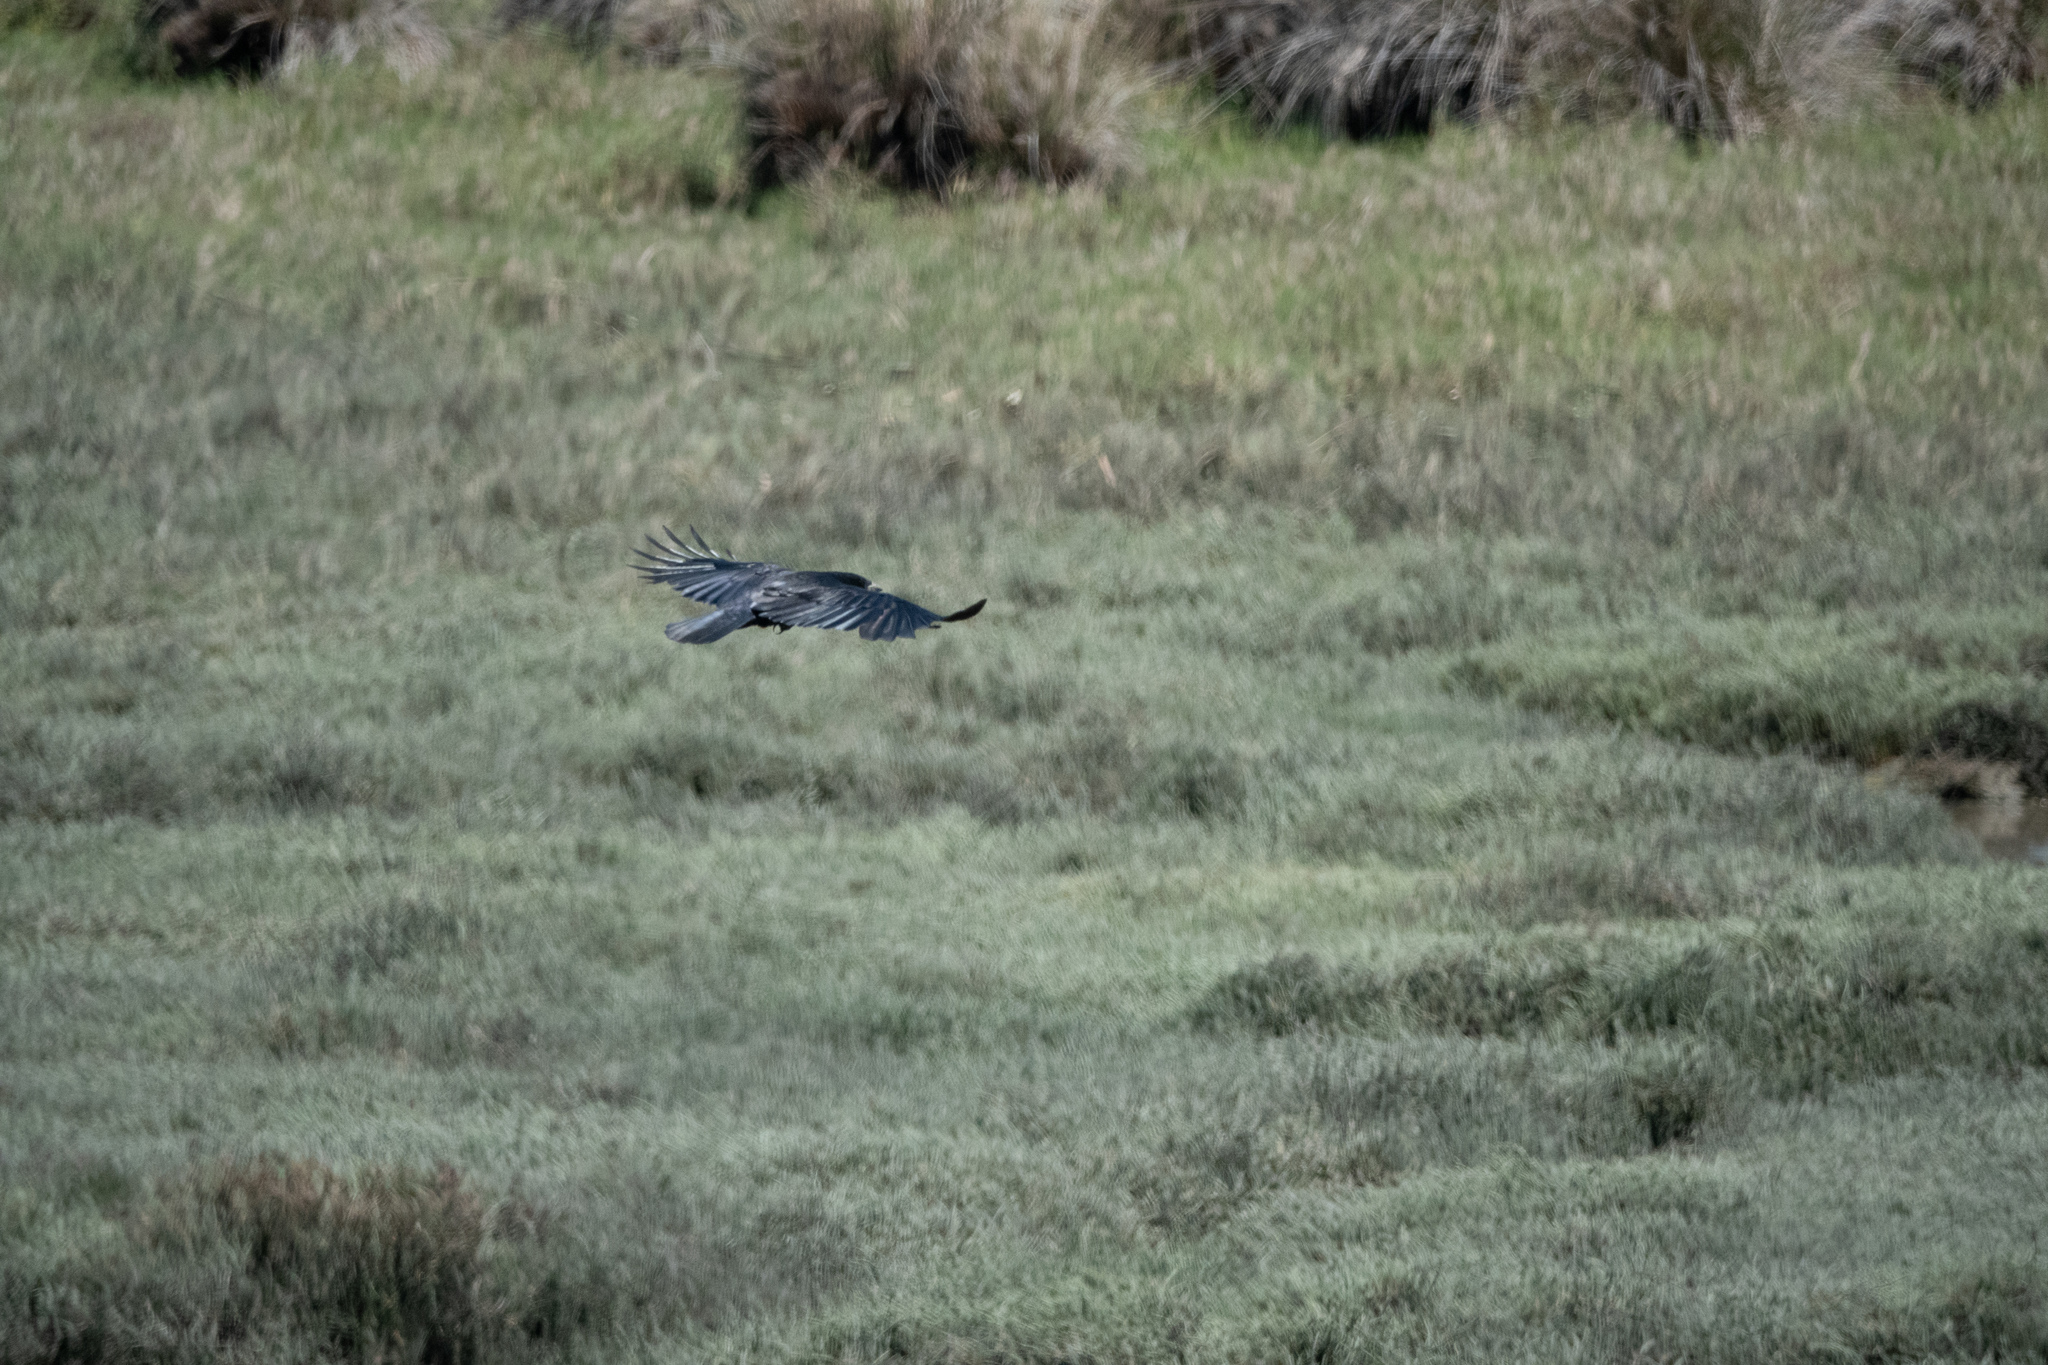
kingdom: Animalia
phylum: Chordata
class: Aves
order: Passeriformes
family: Corvidae
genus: Corvus
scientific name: Corvus brachyrhynchos
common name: American crow
